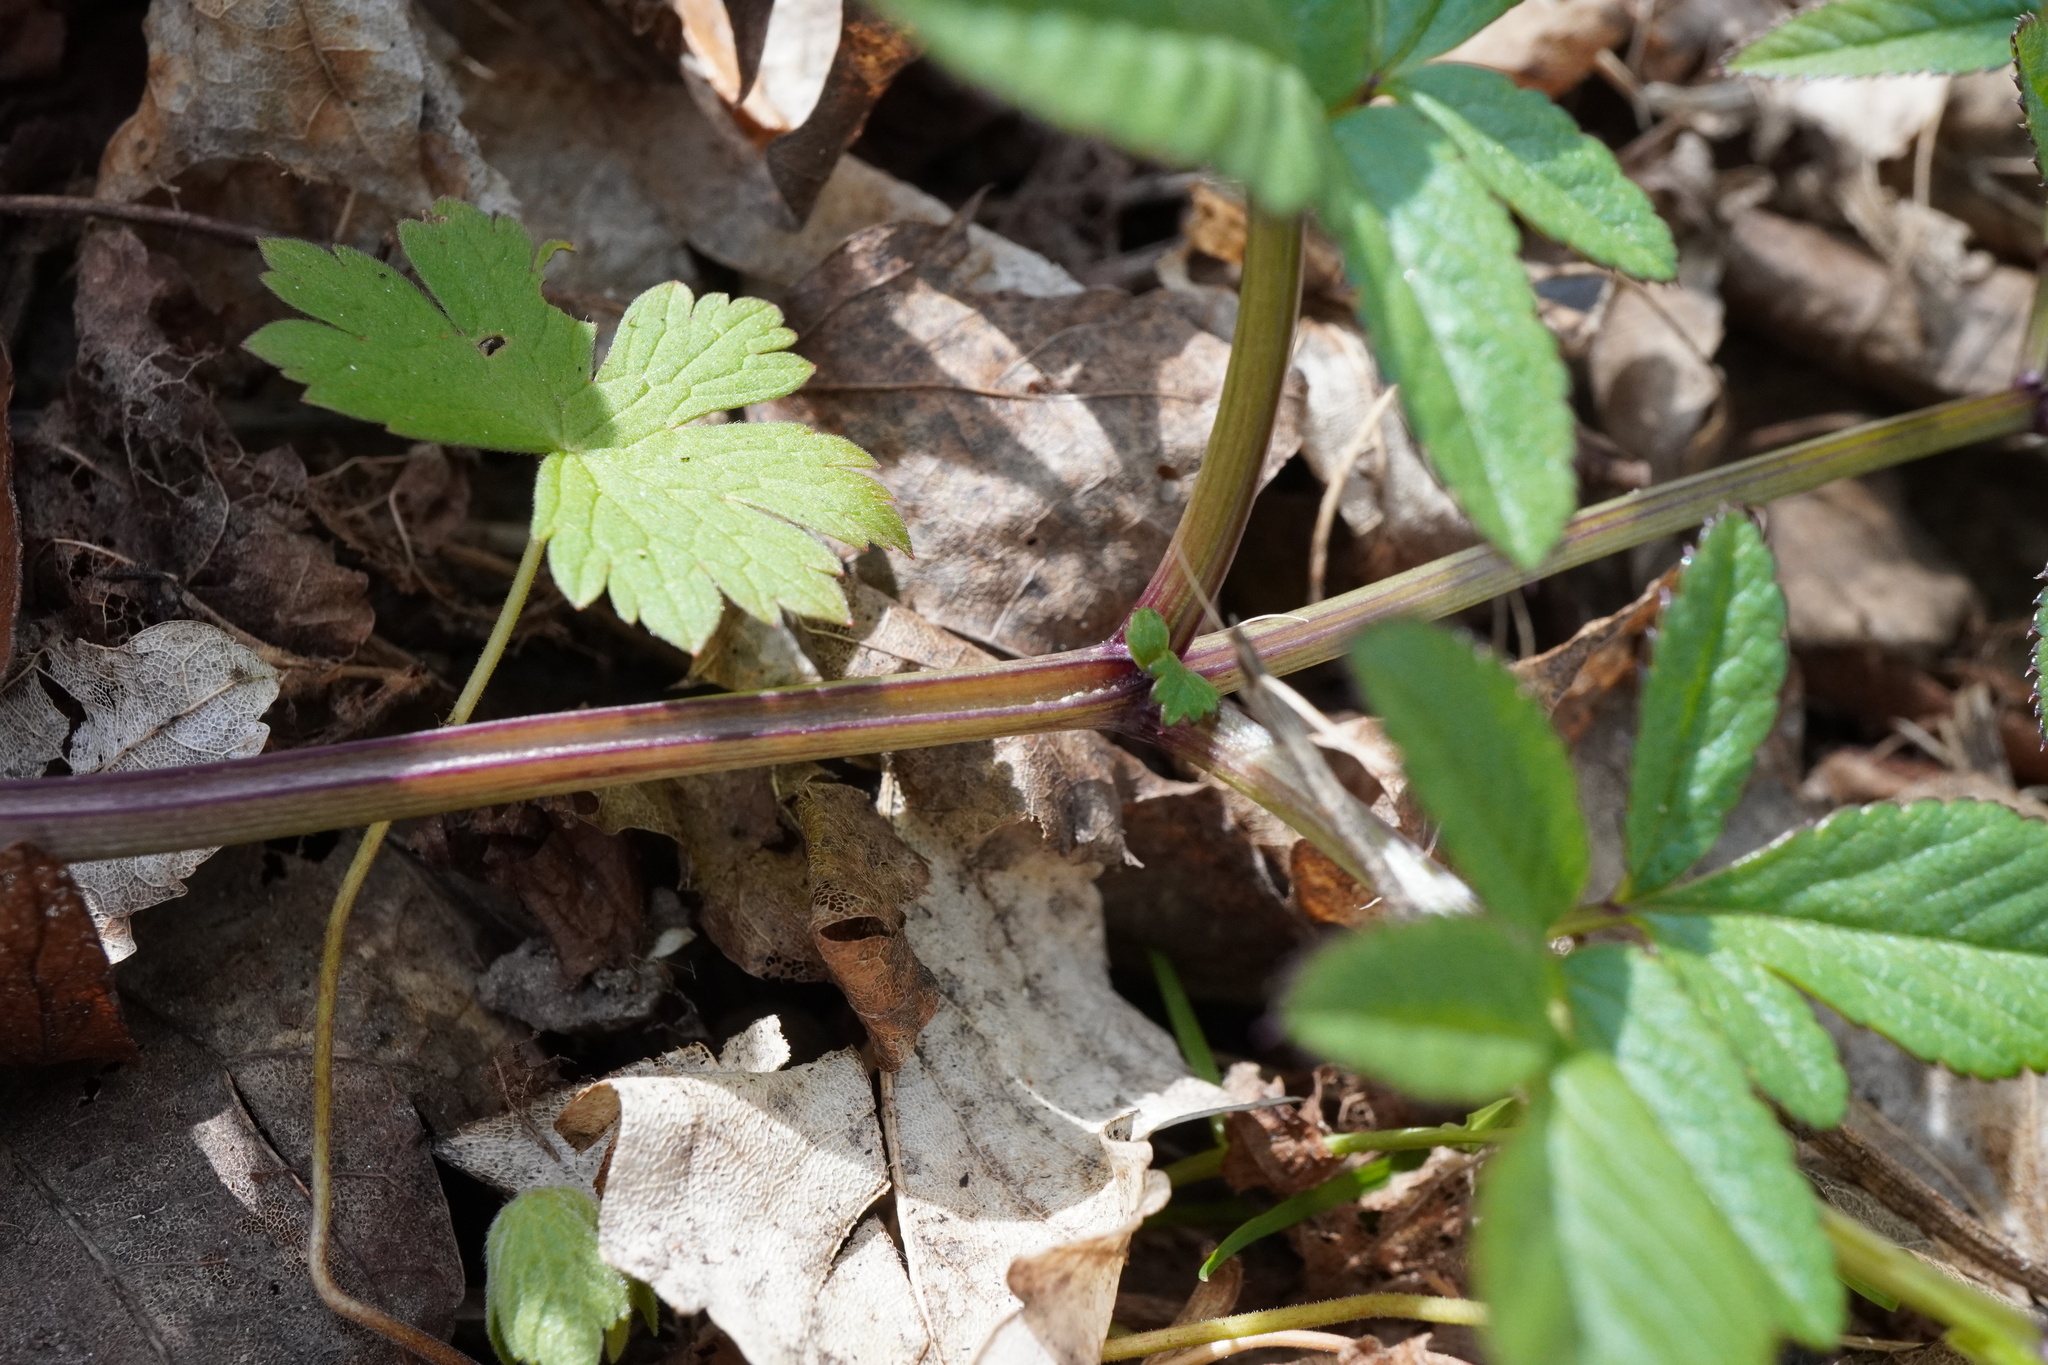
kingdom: Plantae
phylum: Tracheophyta
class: Magnoliopsida
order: Apiales
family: Apiaceae
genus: Angelica
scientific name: Angelica sylvestris
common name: Wild angelica
